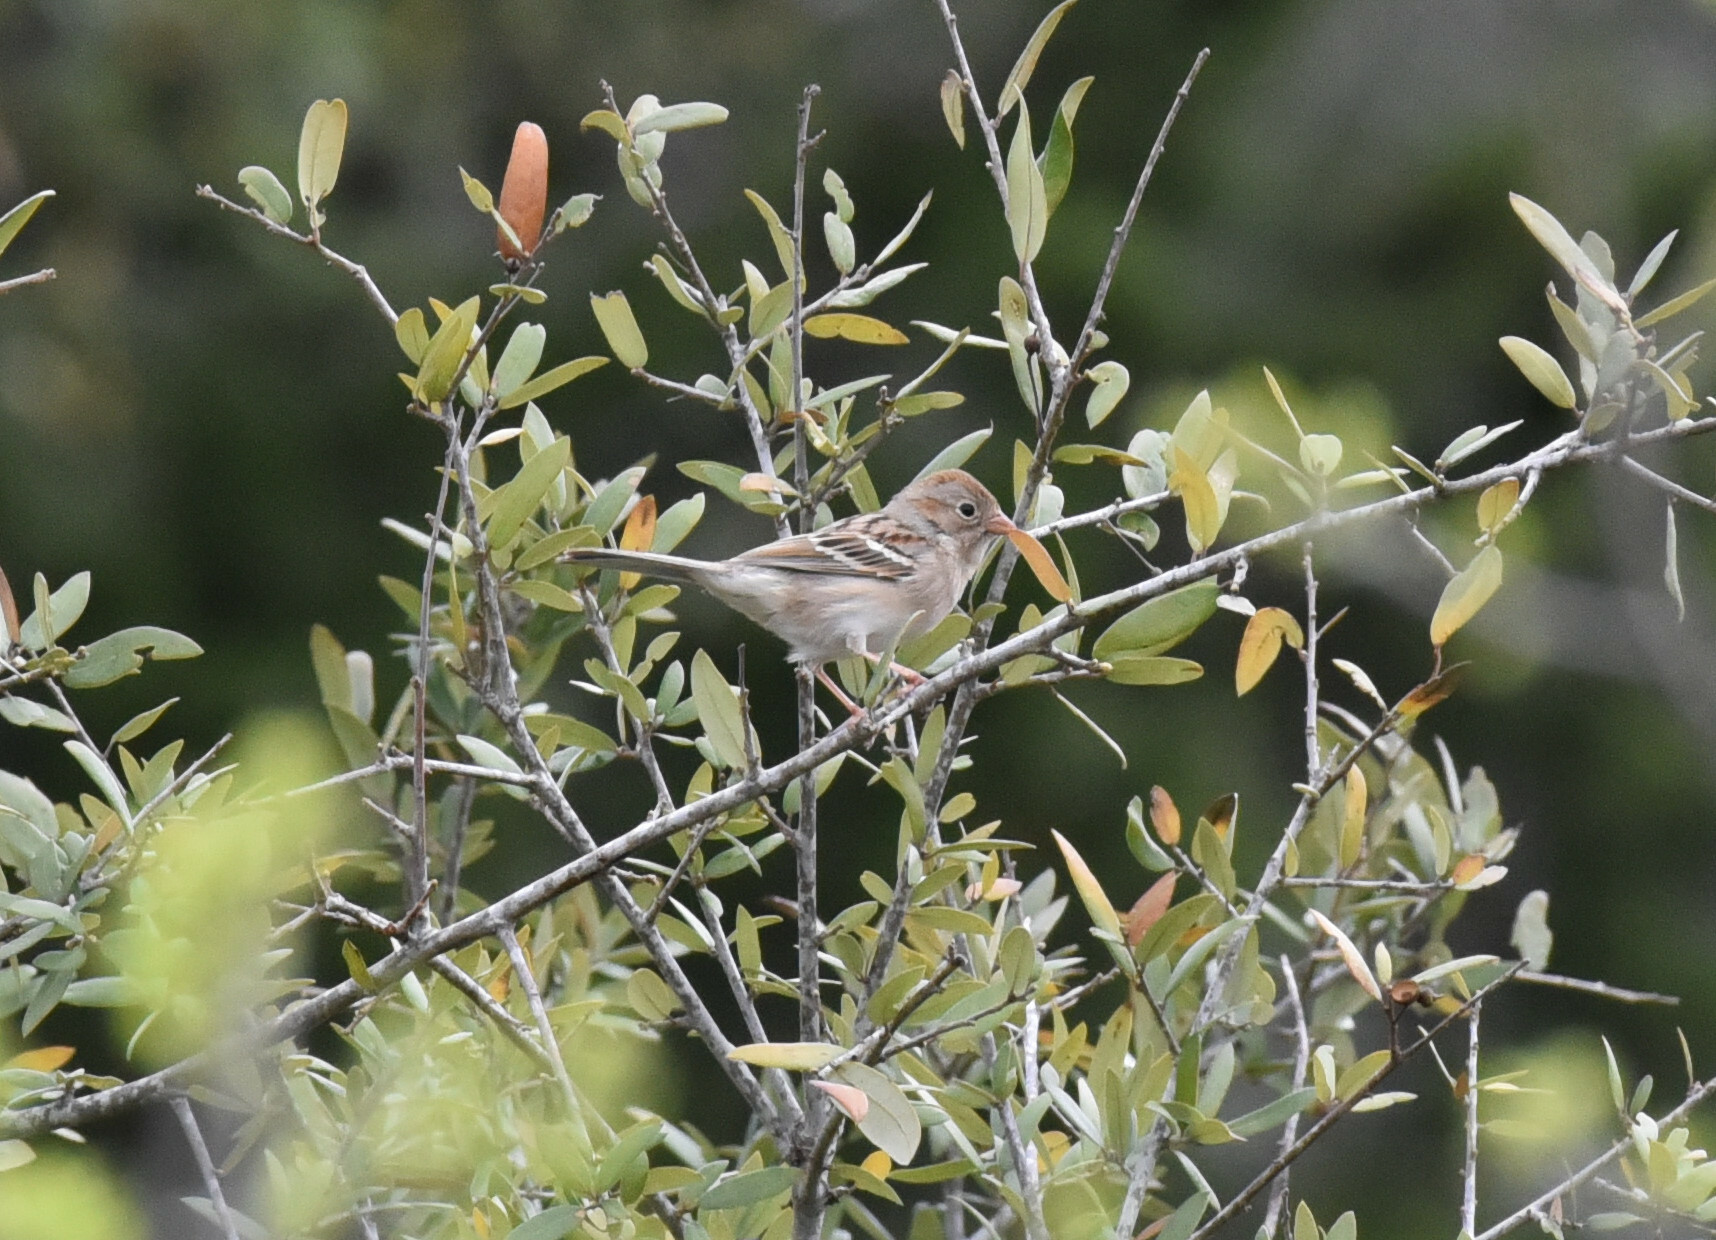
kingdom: Animalia
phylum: Chordata
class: Aves
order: Passeriformes
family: Passerellidae
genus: Spizella
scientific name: Spizella pusilla
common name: Field sparrow
